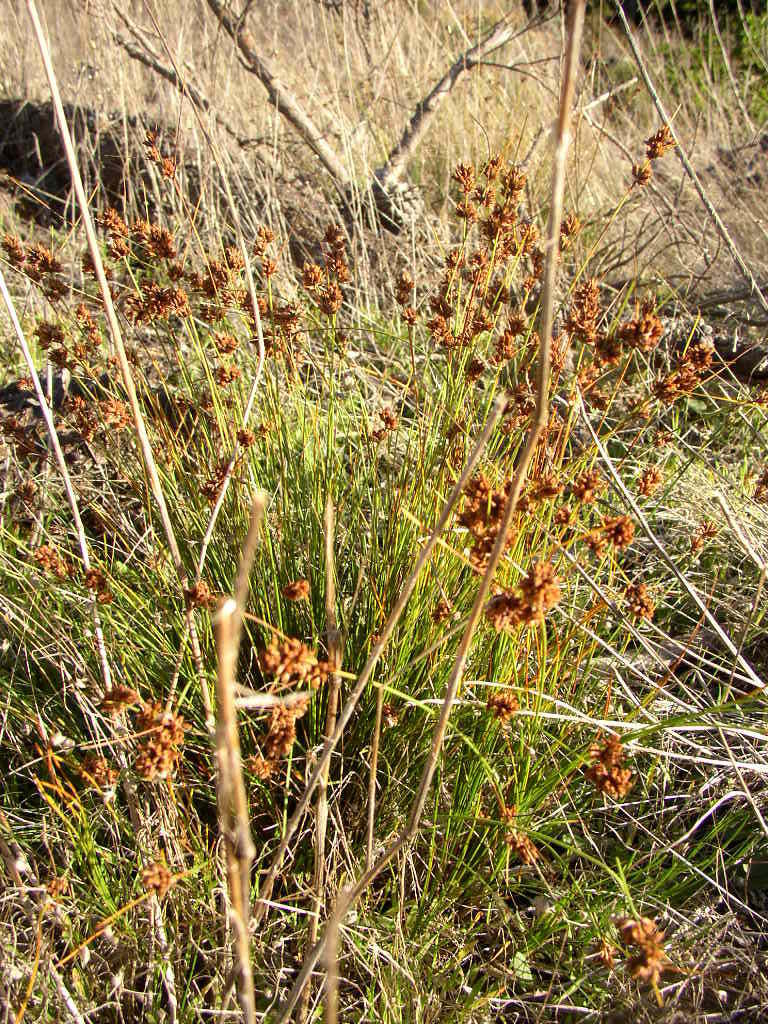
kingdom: Plantae
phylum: Tracheophyta
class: Liliopsida
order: Poales
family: Cyperaceae
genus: Ficinia
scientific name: Ficinia bulbosa
